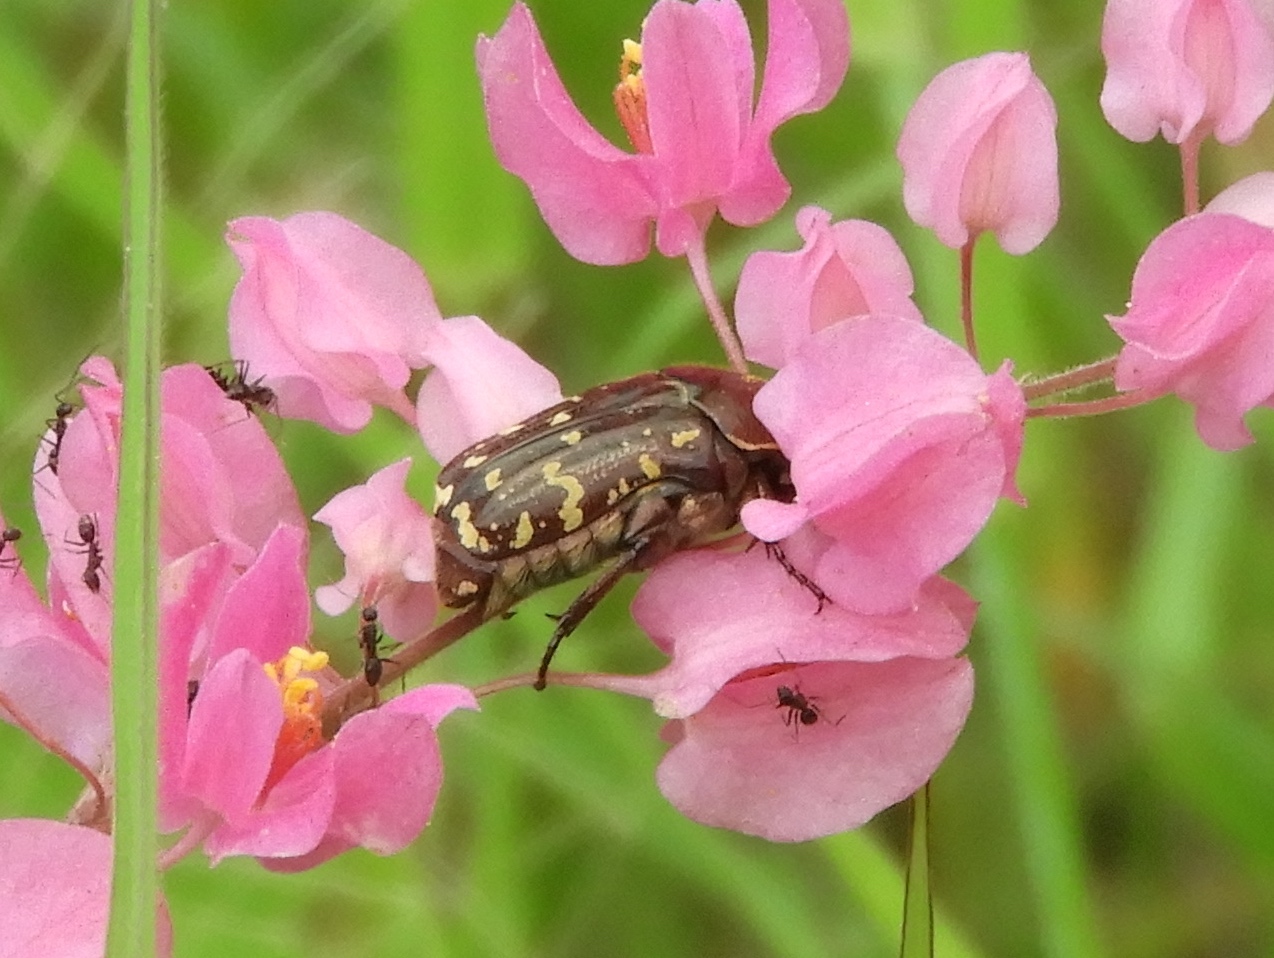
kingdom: Animalia
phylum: Arthropoda
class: Insecta
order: Coleoptera
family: Scarabaeidae
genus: Euphoria
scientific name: Euphoria leucographa
